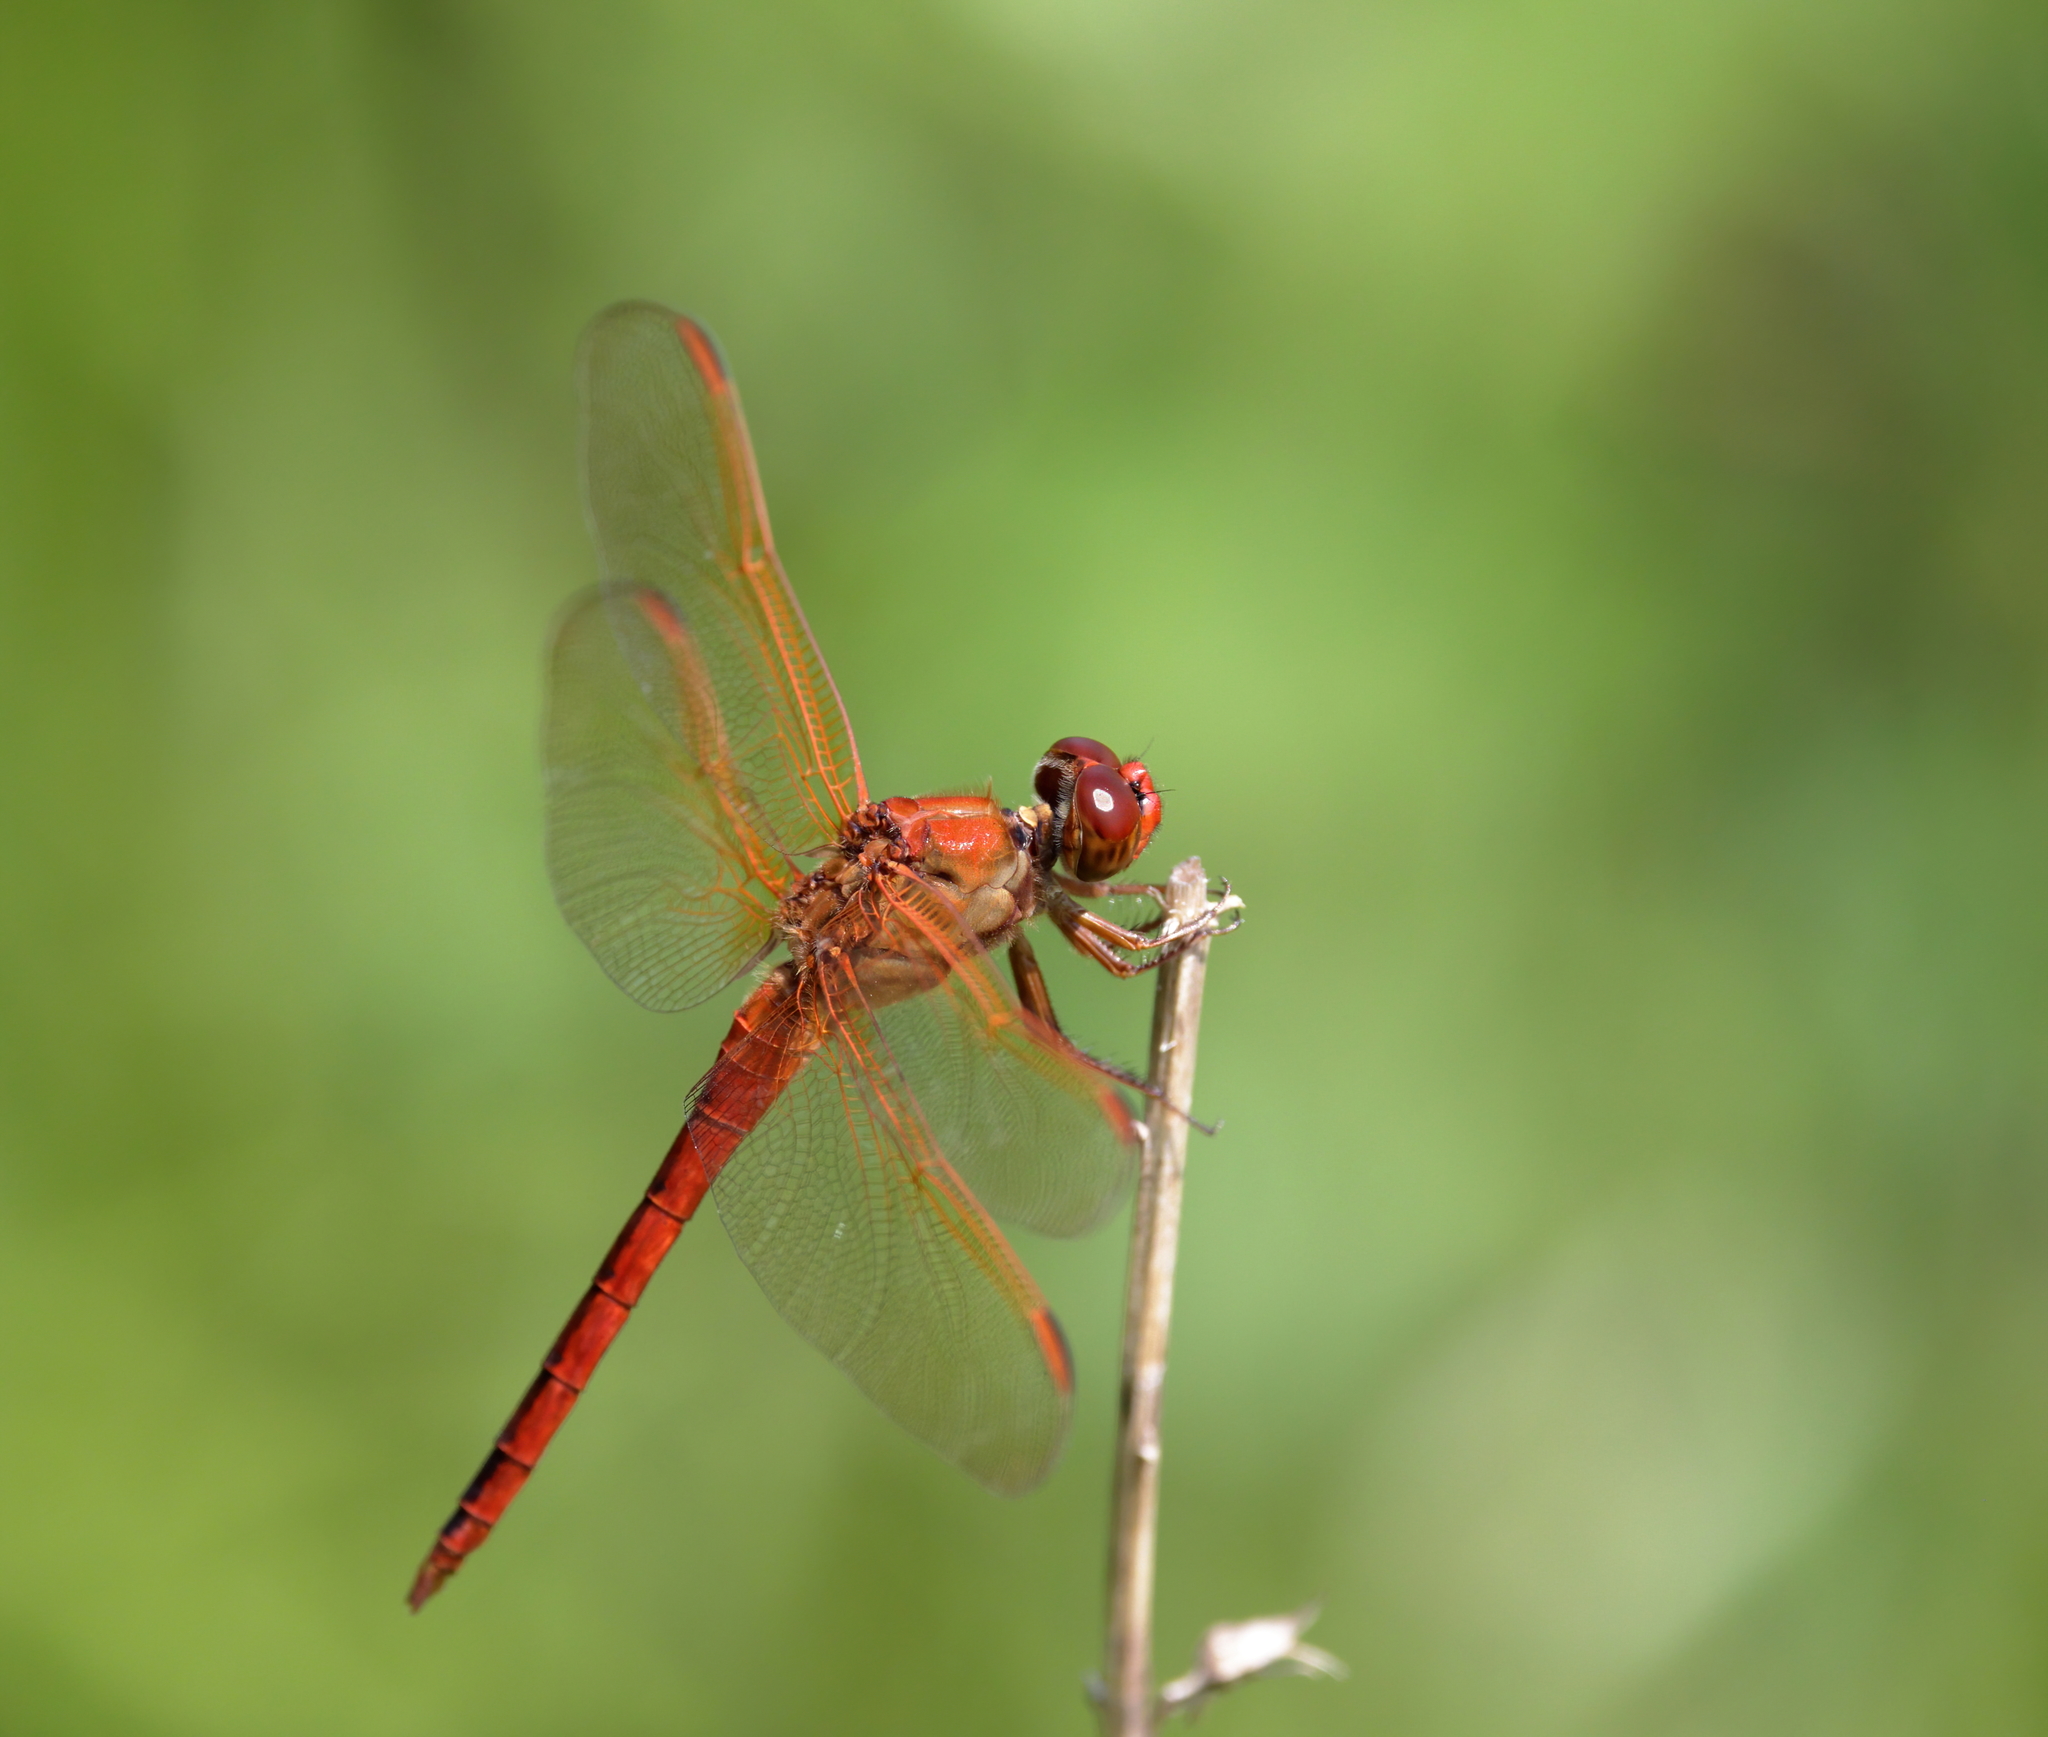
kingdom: Animalia
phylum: Arthropoda
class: Insecta
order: Odonata
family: Libellulidae
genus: Libellula
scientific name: Libellula needhami
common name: Needham's skimmer
